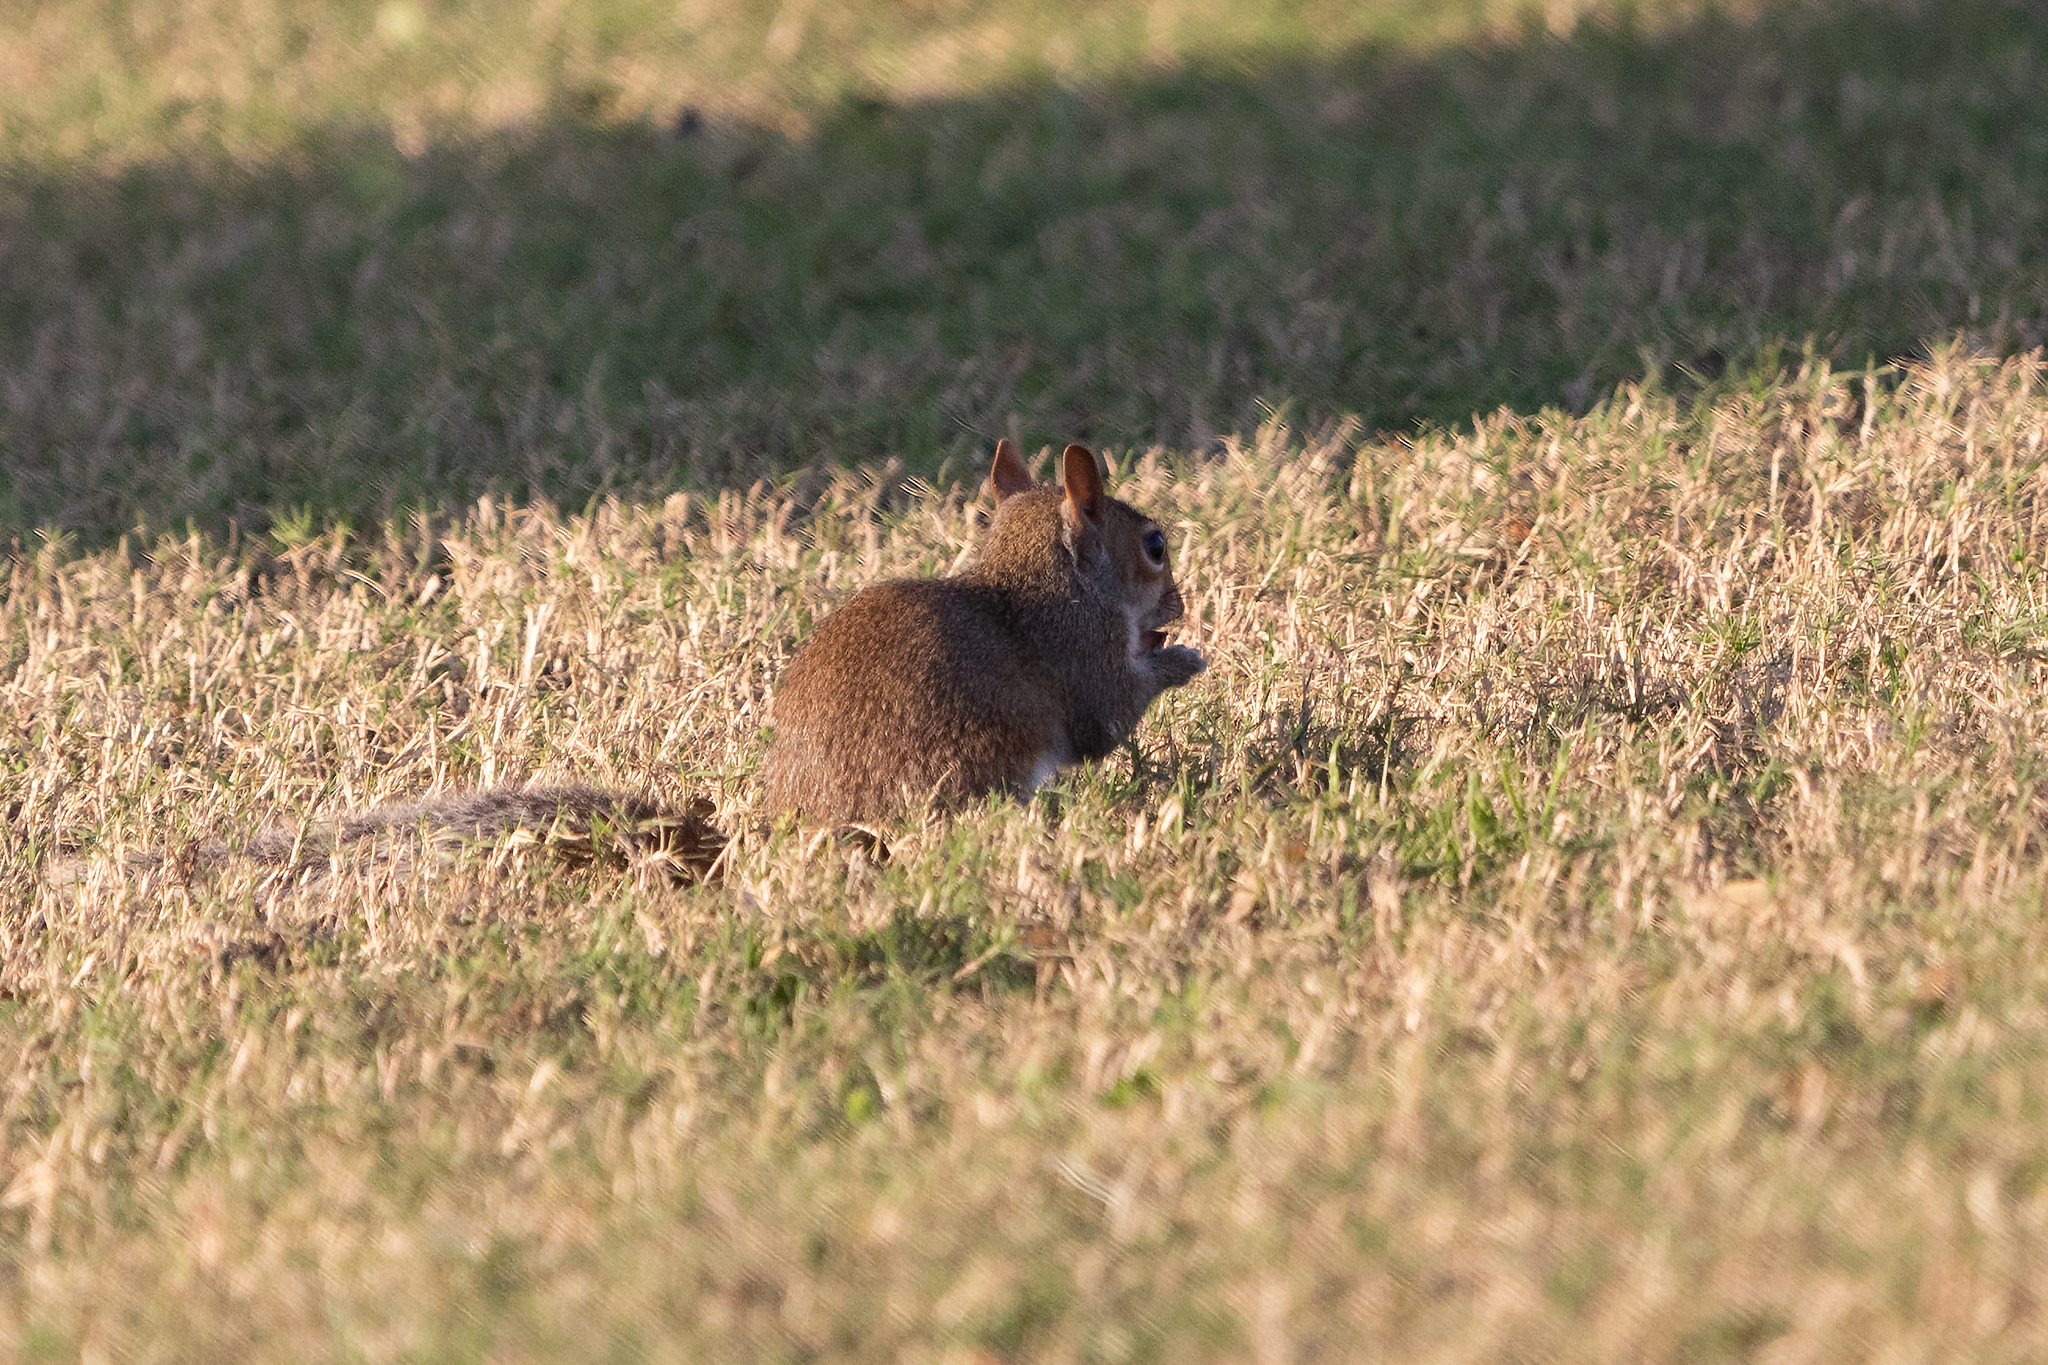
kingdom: Animalia
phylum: Chordata
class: Mammalia
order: Rodentia
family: Sciuridae
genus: Sciurus
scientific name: Sciurus carolinensis
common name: Eastern gray squirrel
